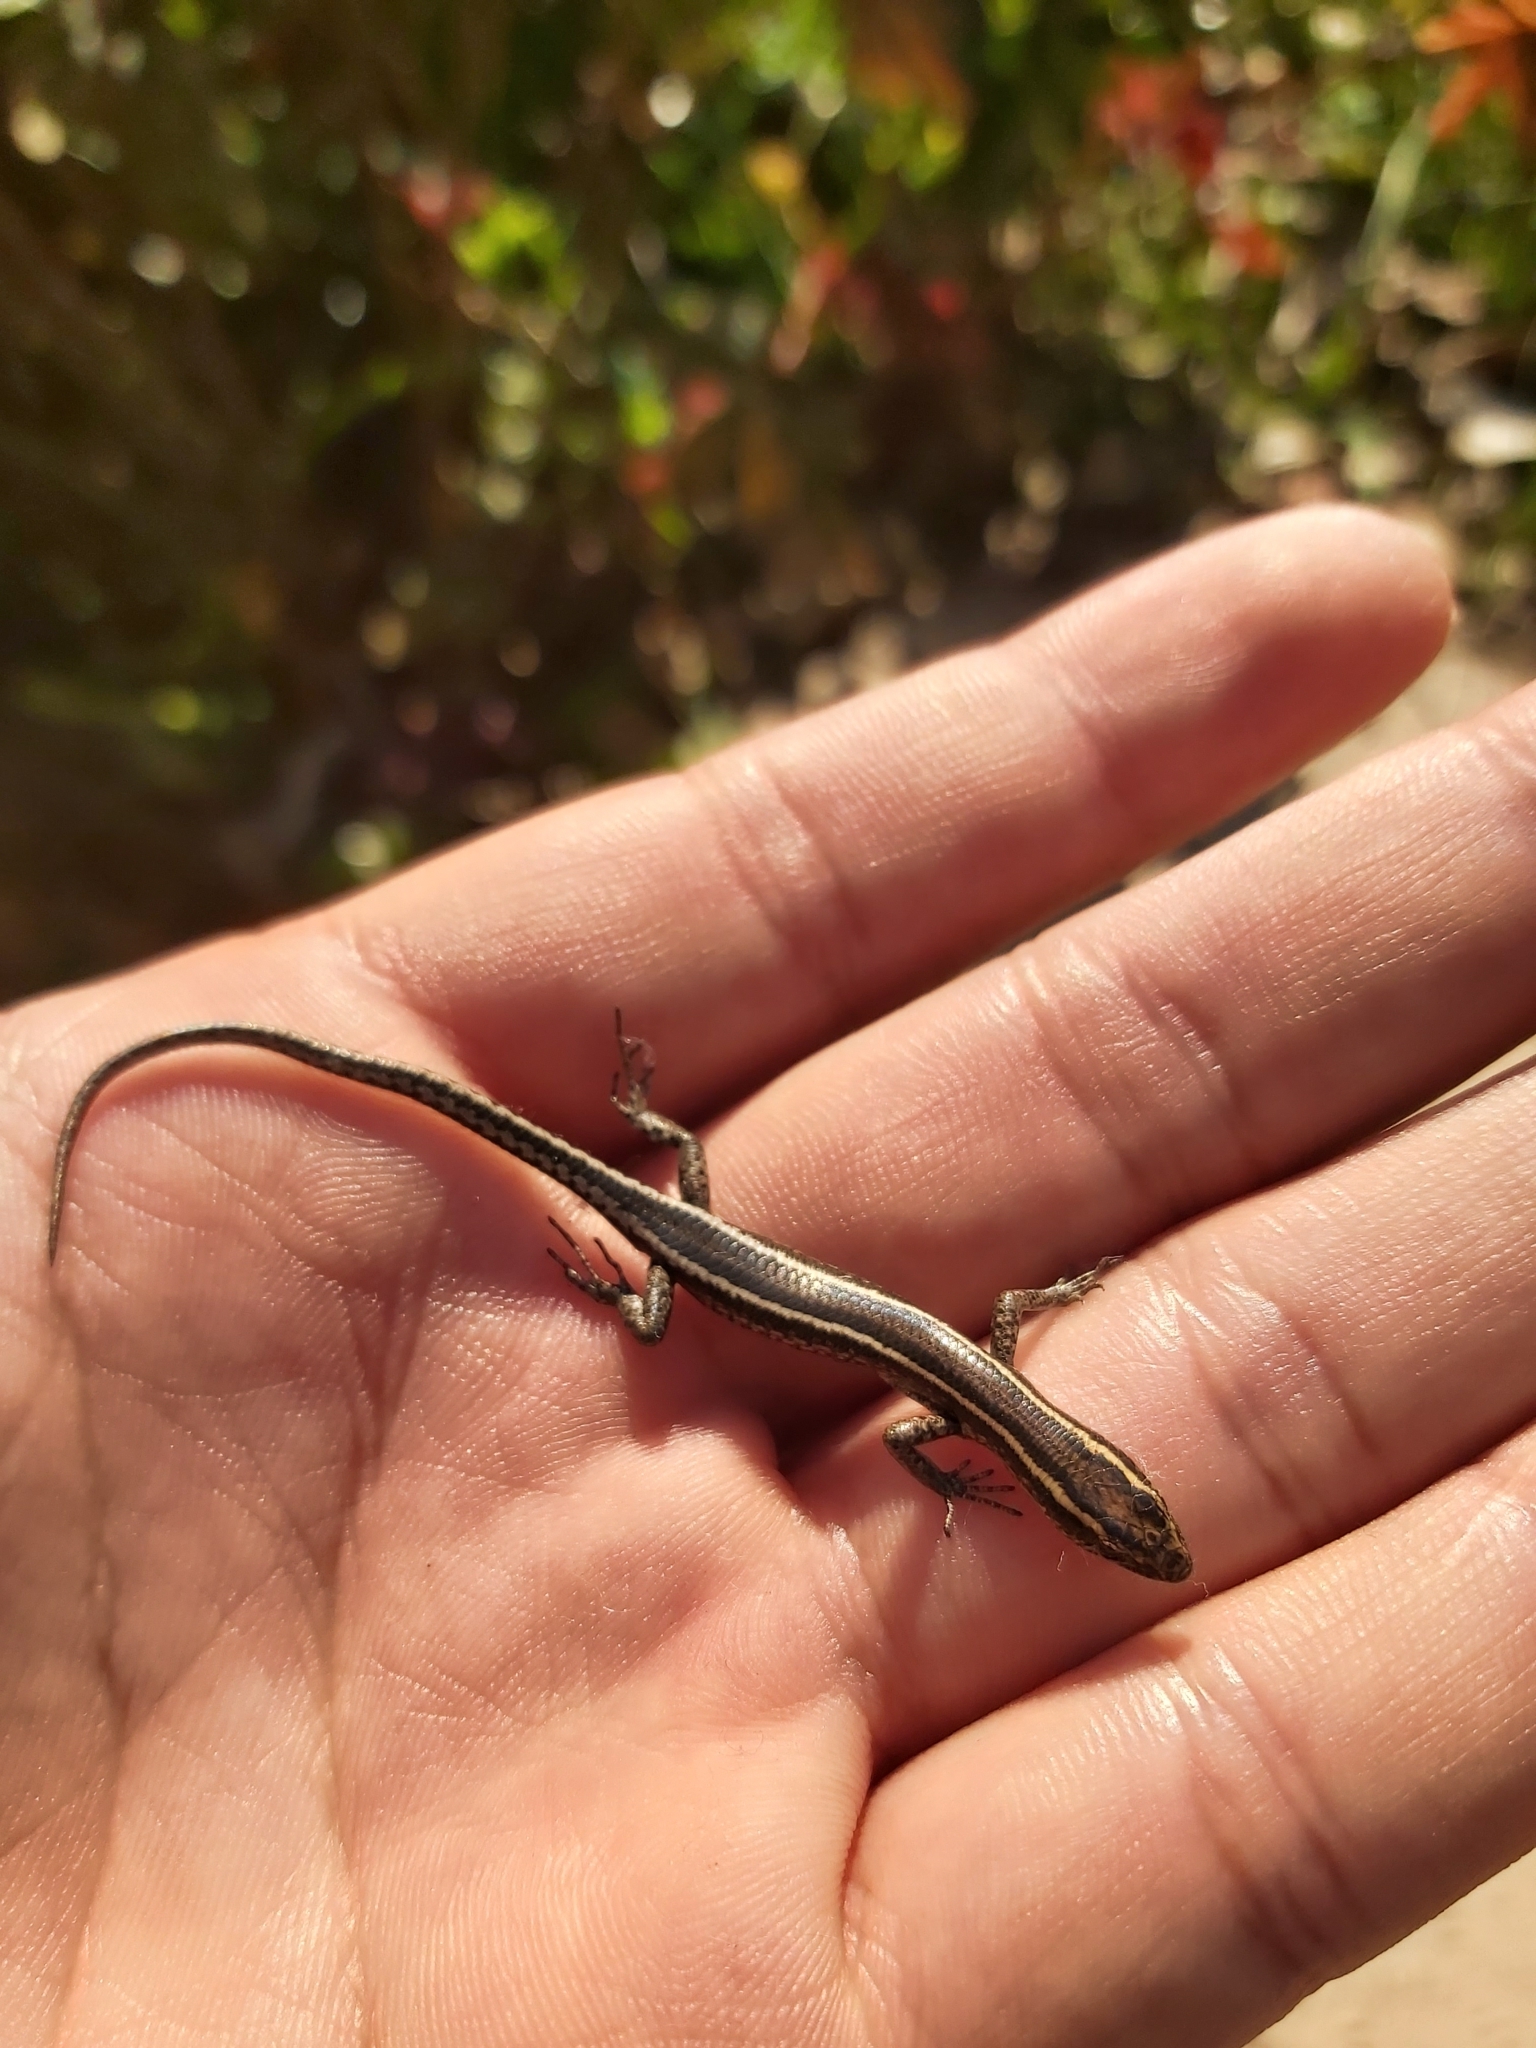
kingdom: Animalia
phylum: Chordata
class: Squamata
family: Scincidae
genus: Cryptoblepharus
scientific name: Cryptoblepharus pulcher
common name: Elegant snake-eyed skink
